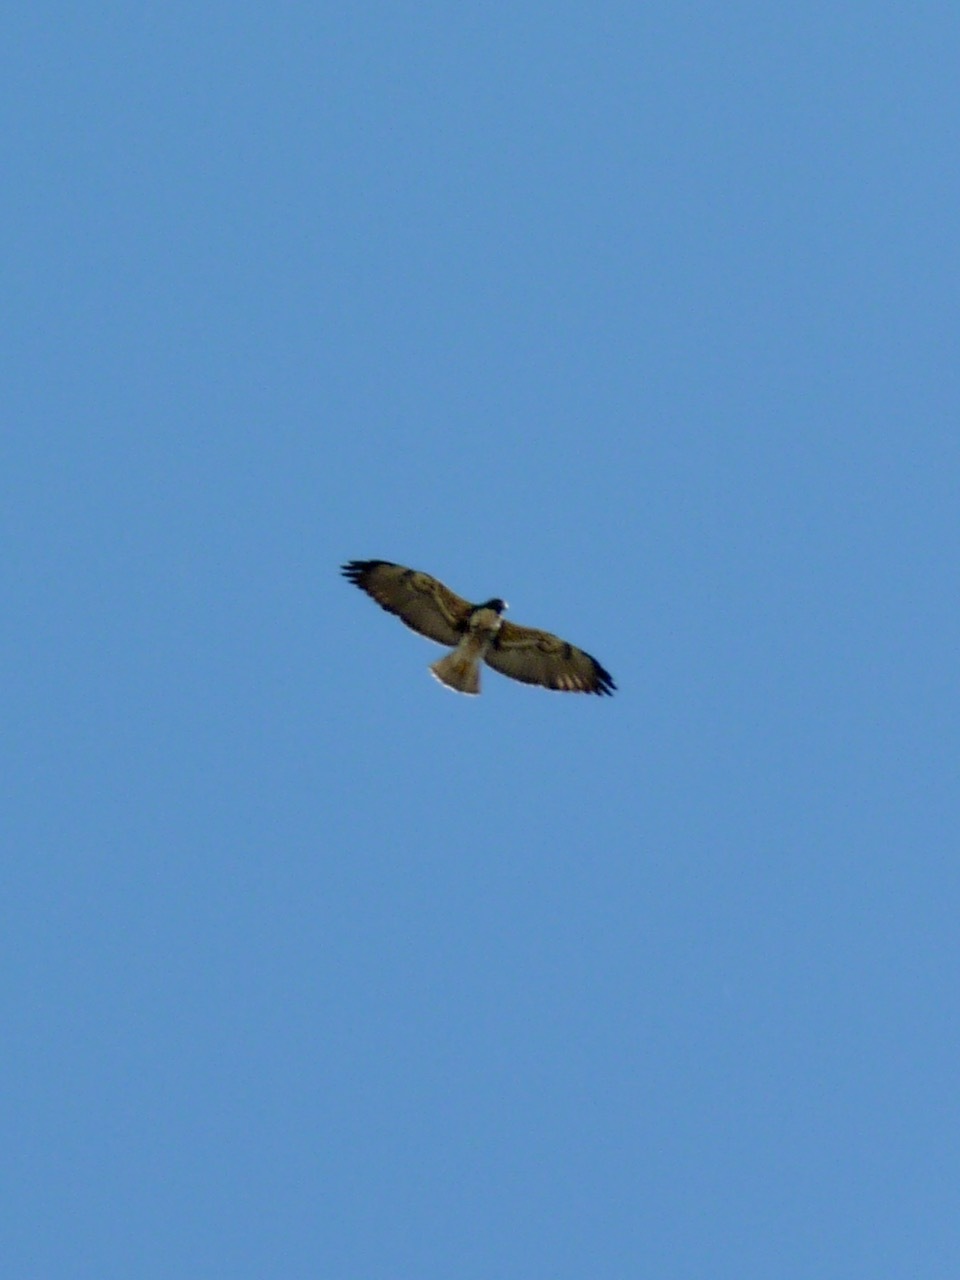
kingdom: Animalia
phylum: Chordata
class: Aves
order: Accipitriformes
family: Accipitridae
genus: Buteo
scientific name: Buteo albicaudatus
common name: White-tailed hawk
